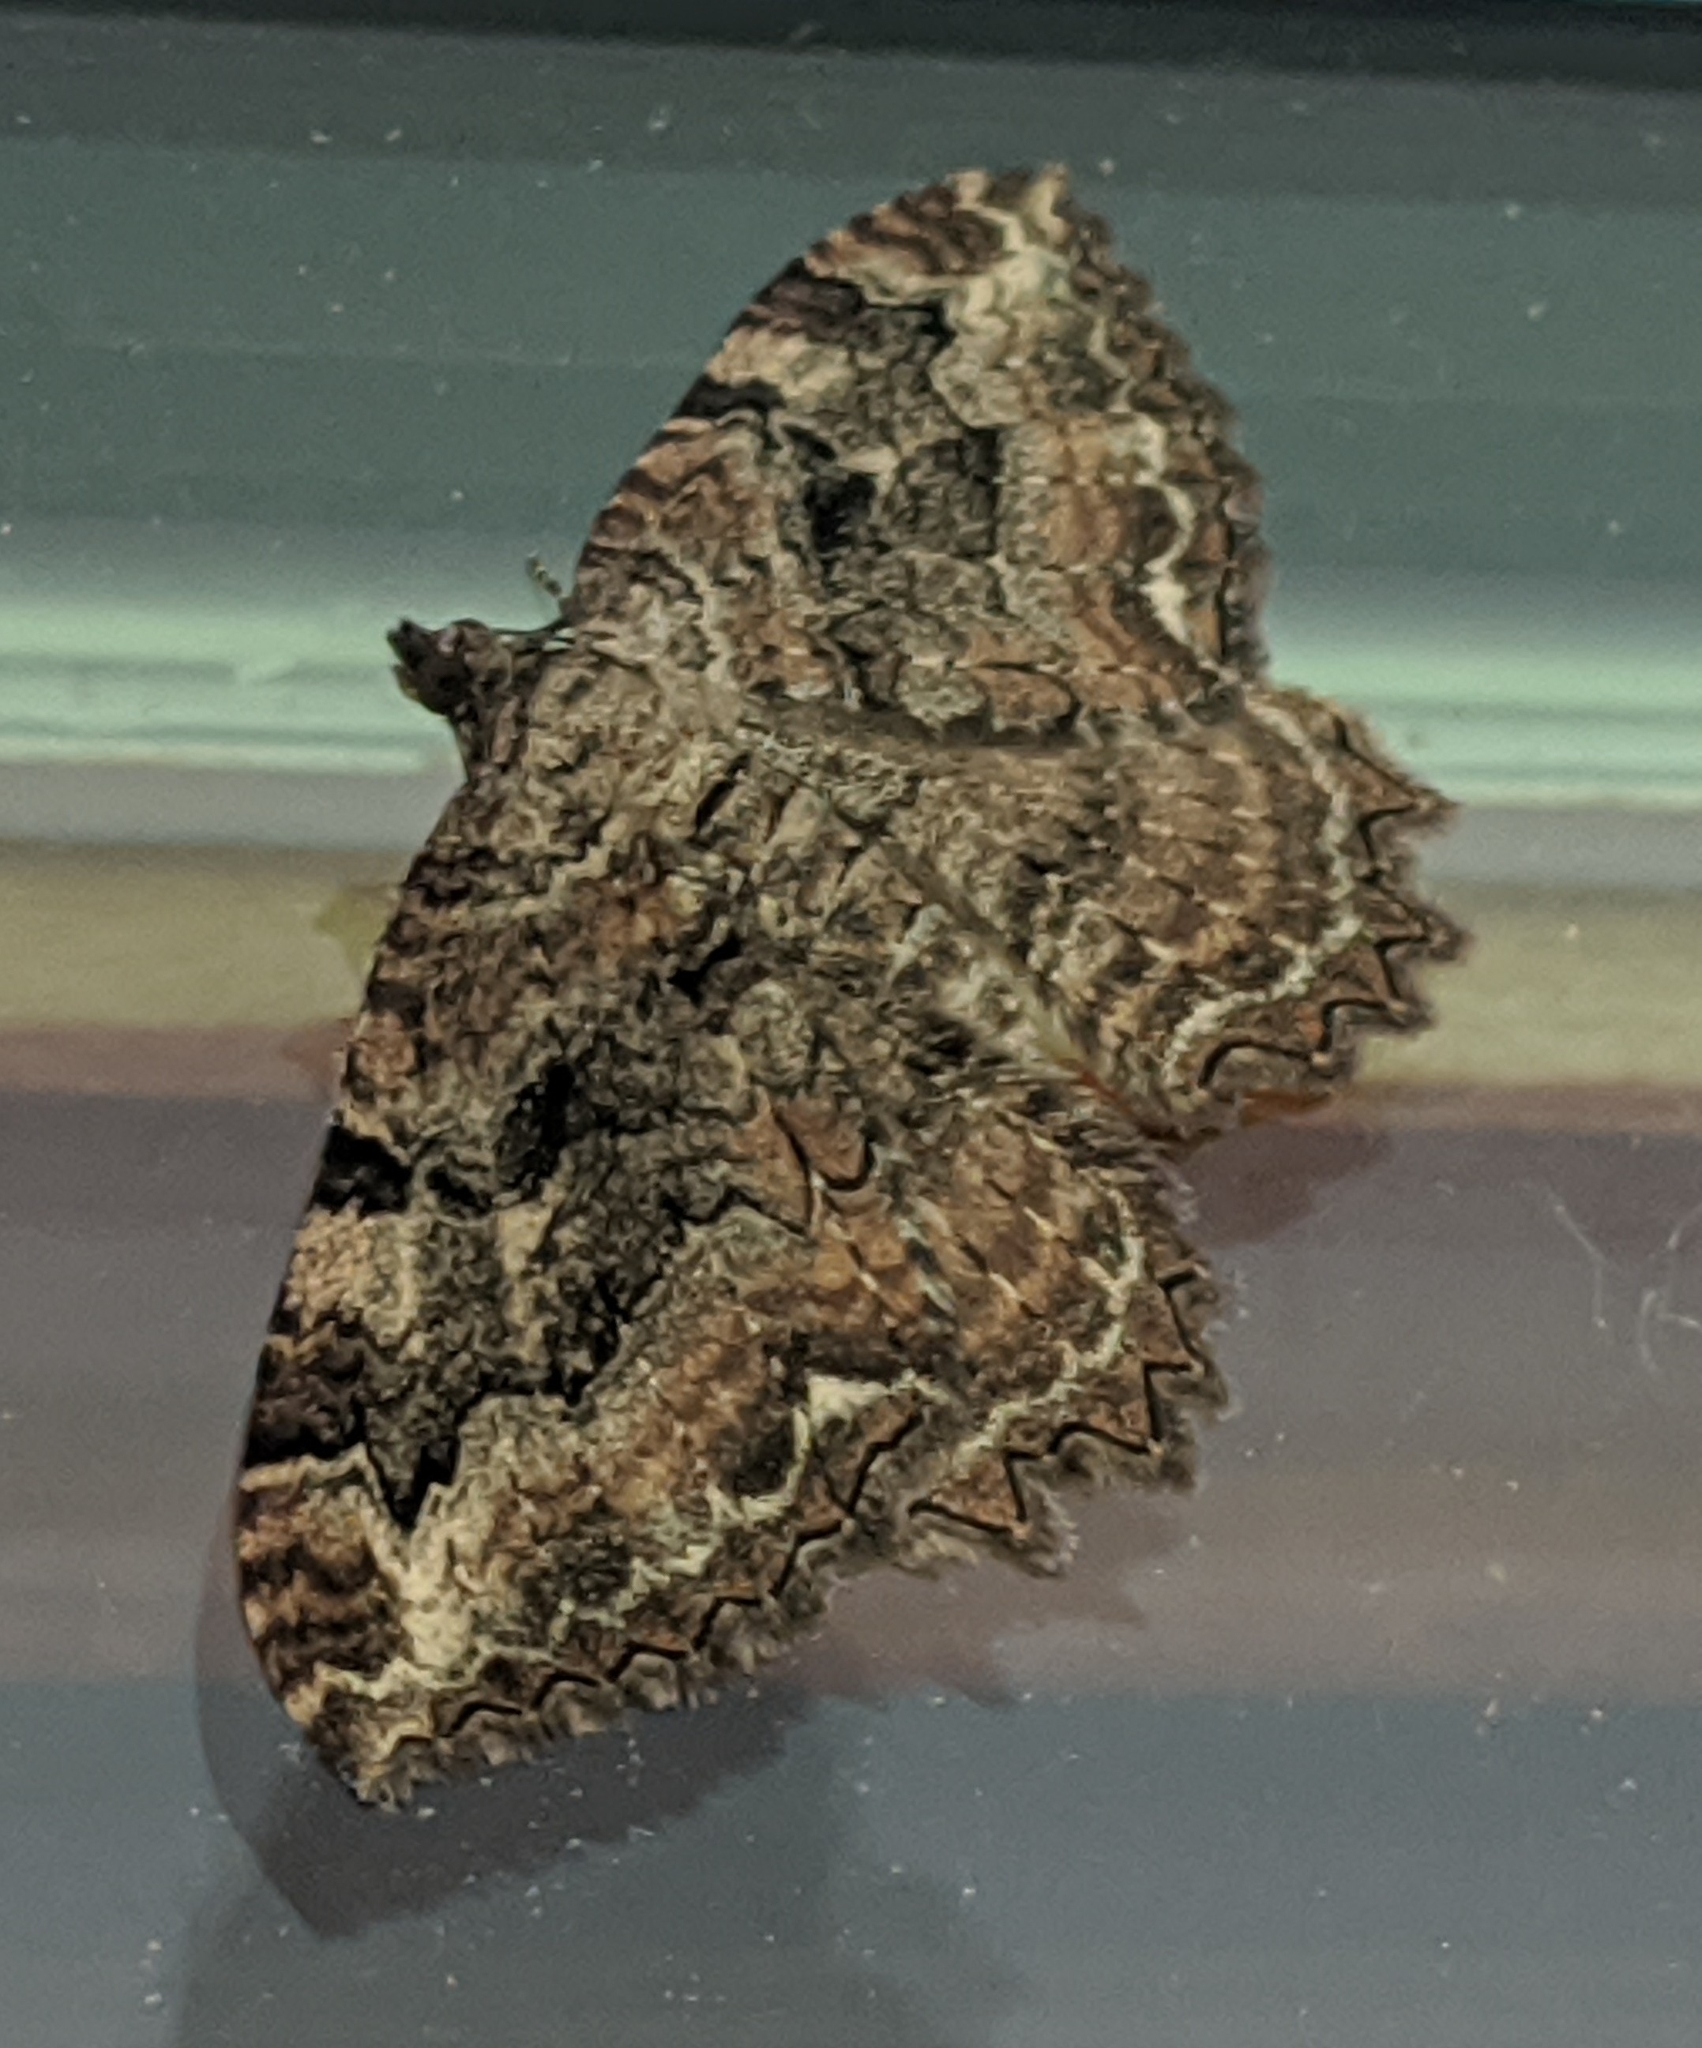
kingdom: Animalia
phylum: Arthropoda
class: Insecta
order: Lepidoptera
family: Geometridae
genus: Rheumaptera
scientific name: Rheumaptera
